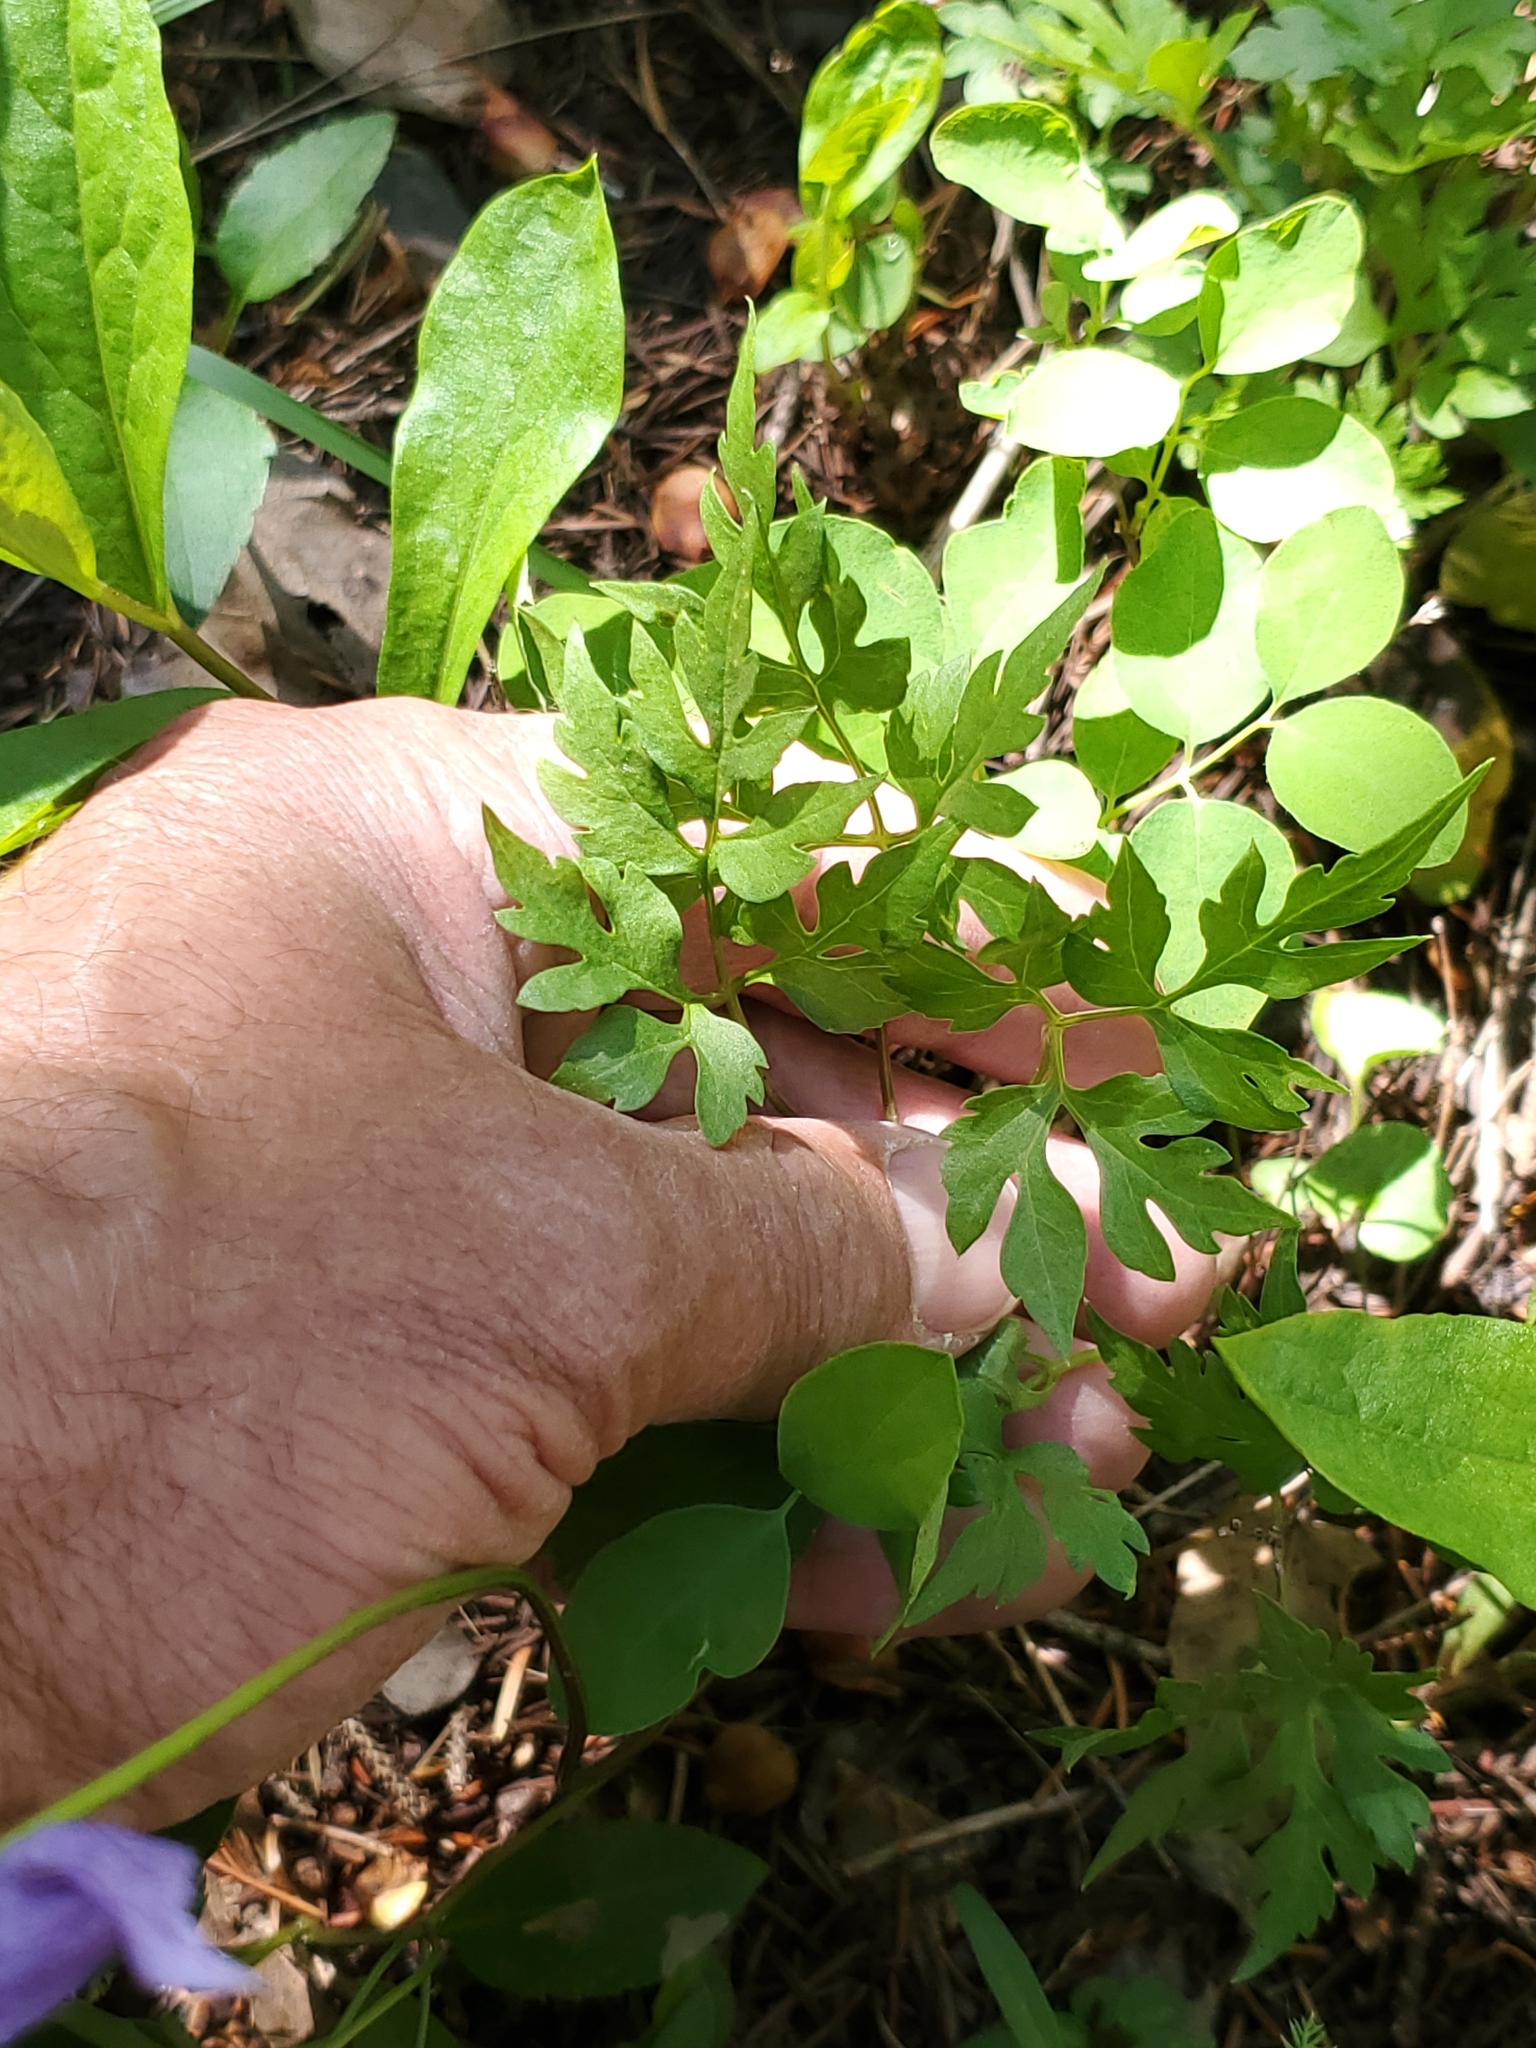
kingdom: Plantae
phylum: Tracheophyta
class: Magnoliopsida
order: Ranunculales
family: Ranunculaceae
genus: Clematis
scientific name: Clematis columbiana
